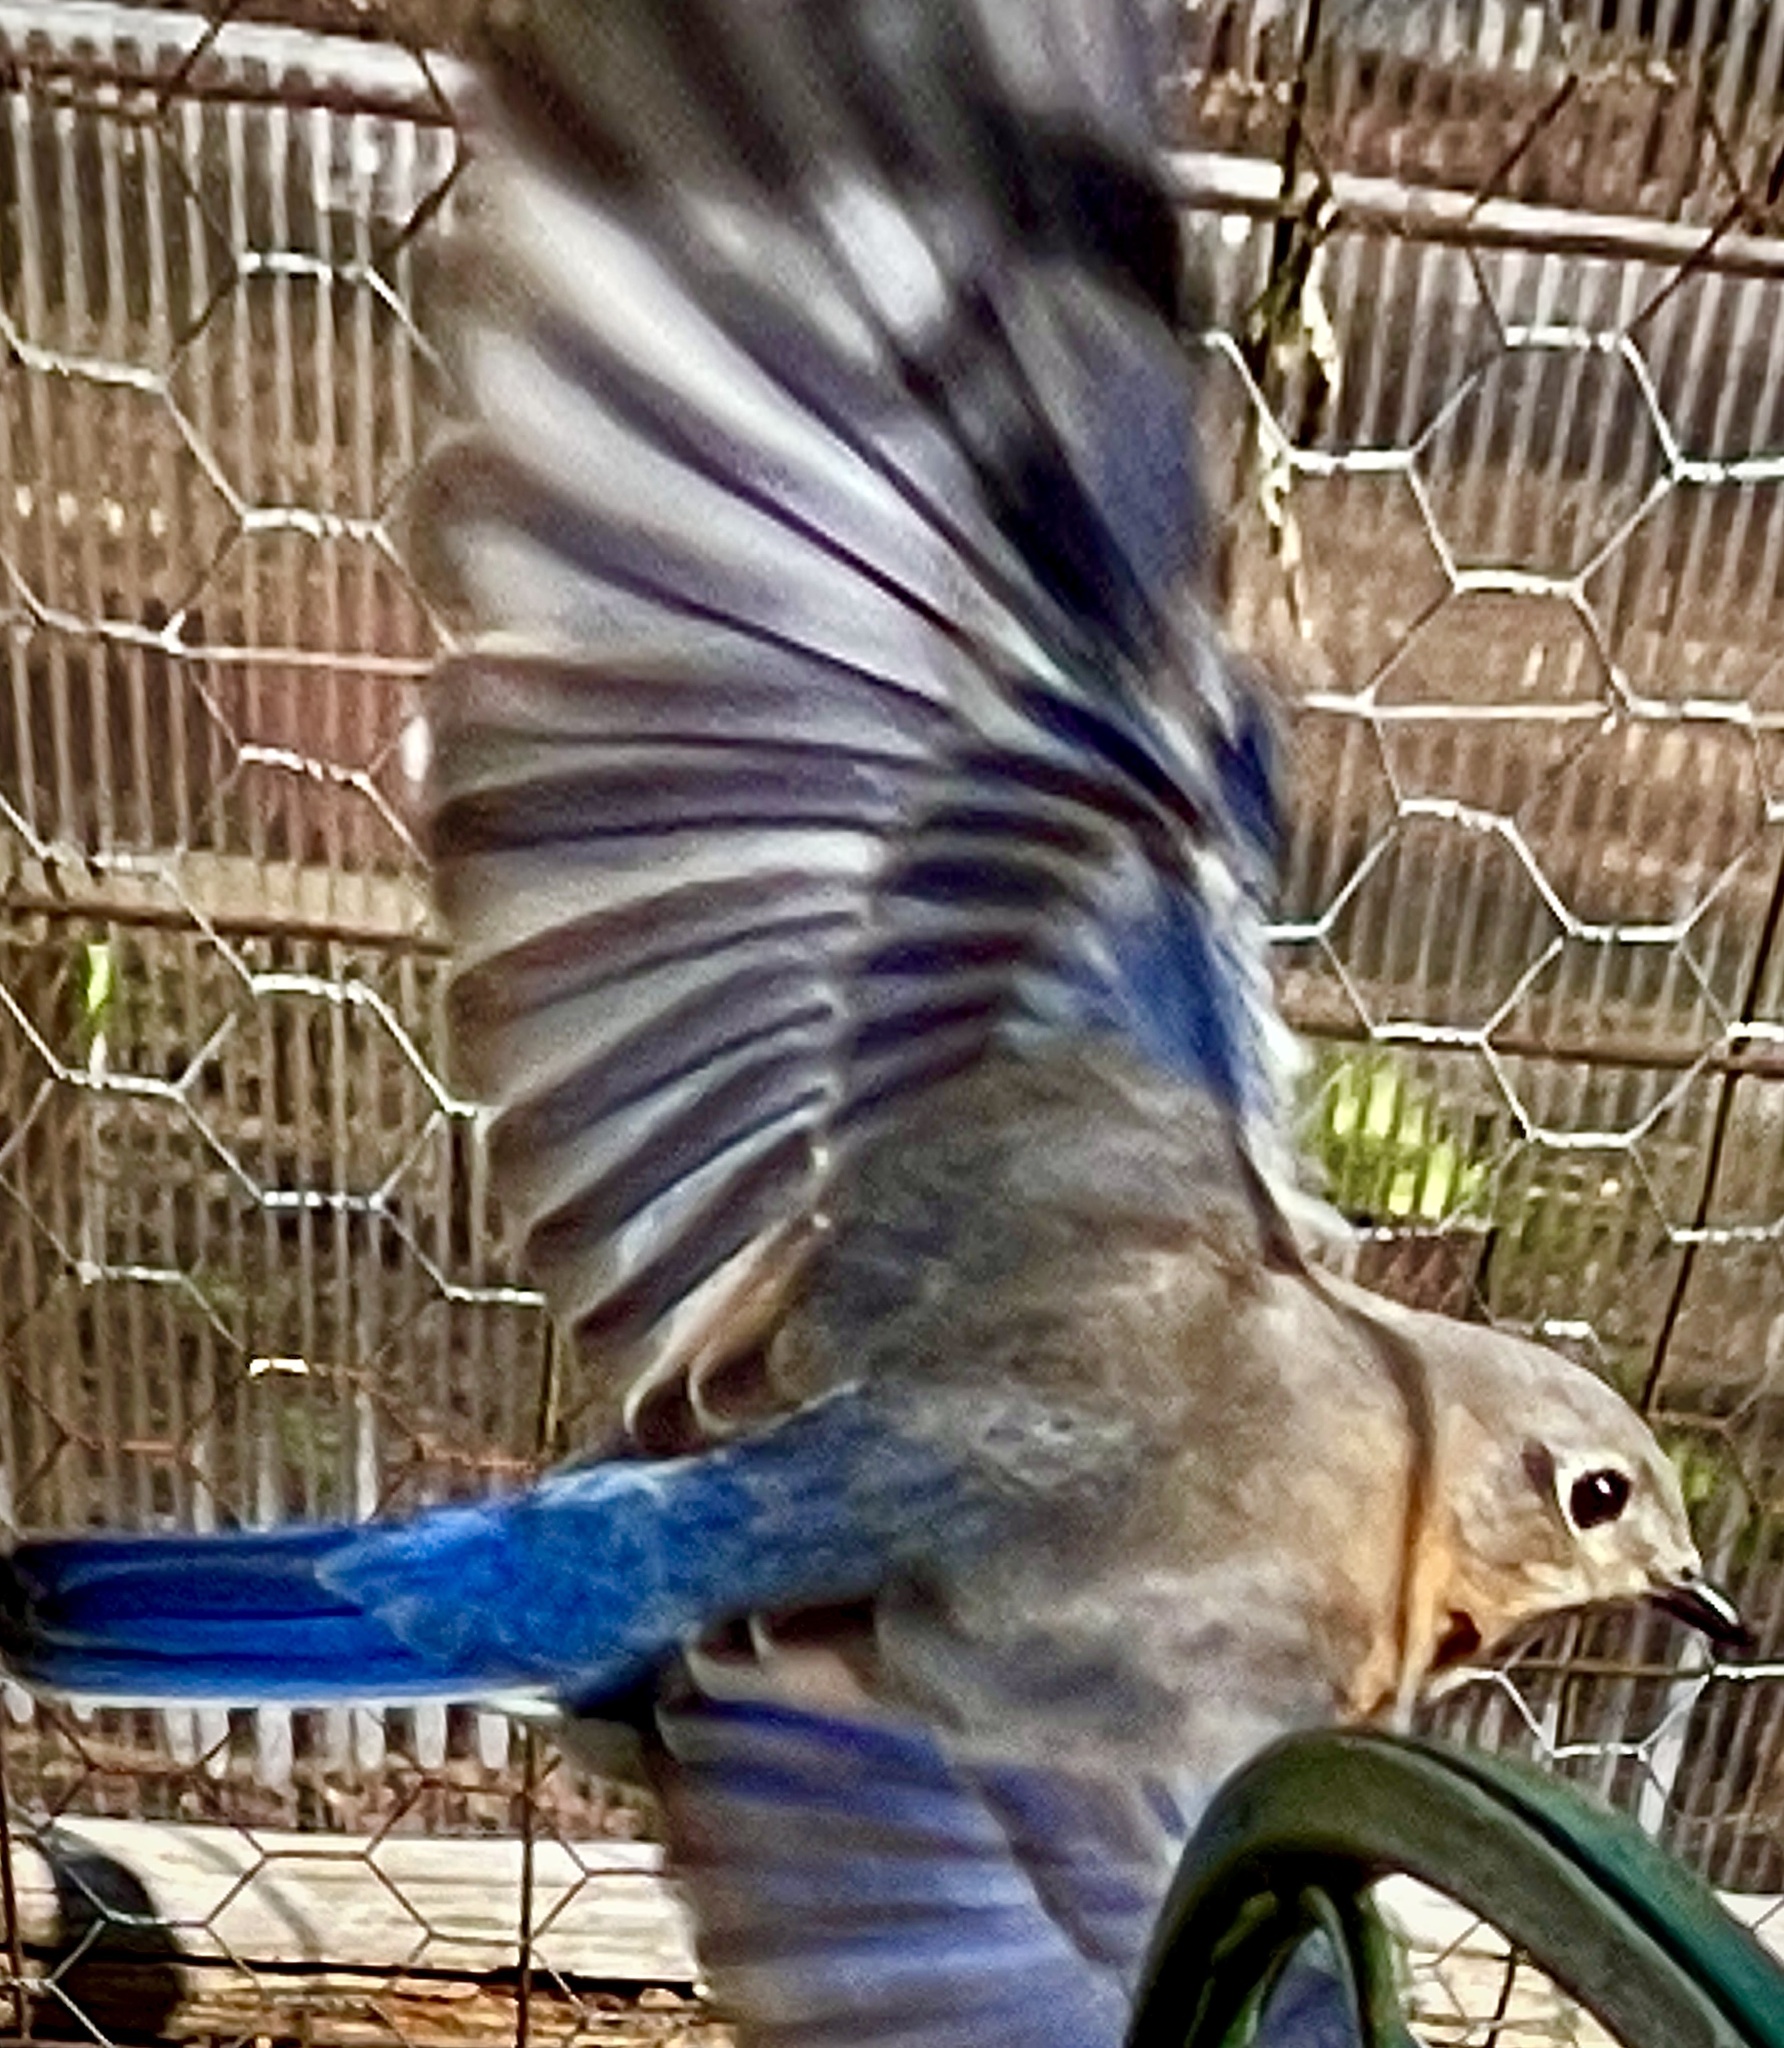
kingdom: Animalia
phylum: Chordata
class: Aves
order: Passeriformes
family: Turdidae
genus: Sialia
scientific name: Sialia sialis
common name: Eastern bluebird
